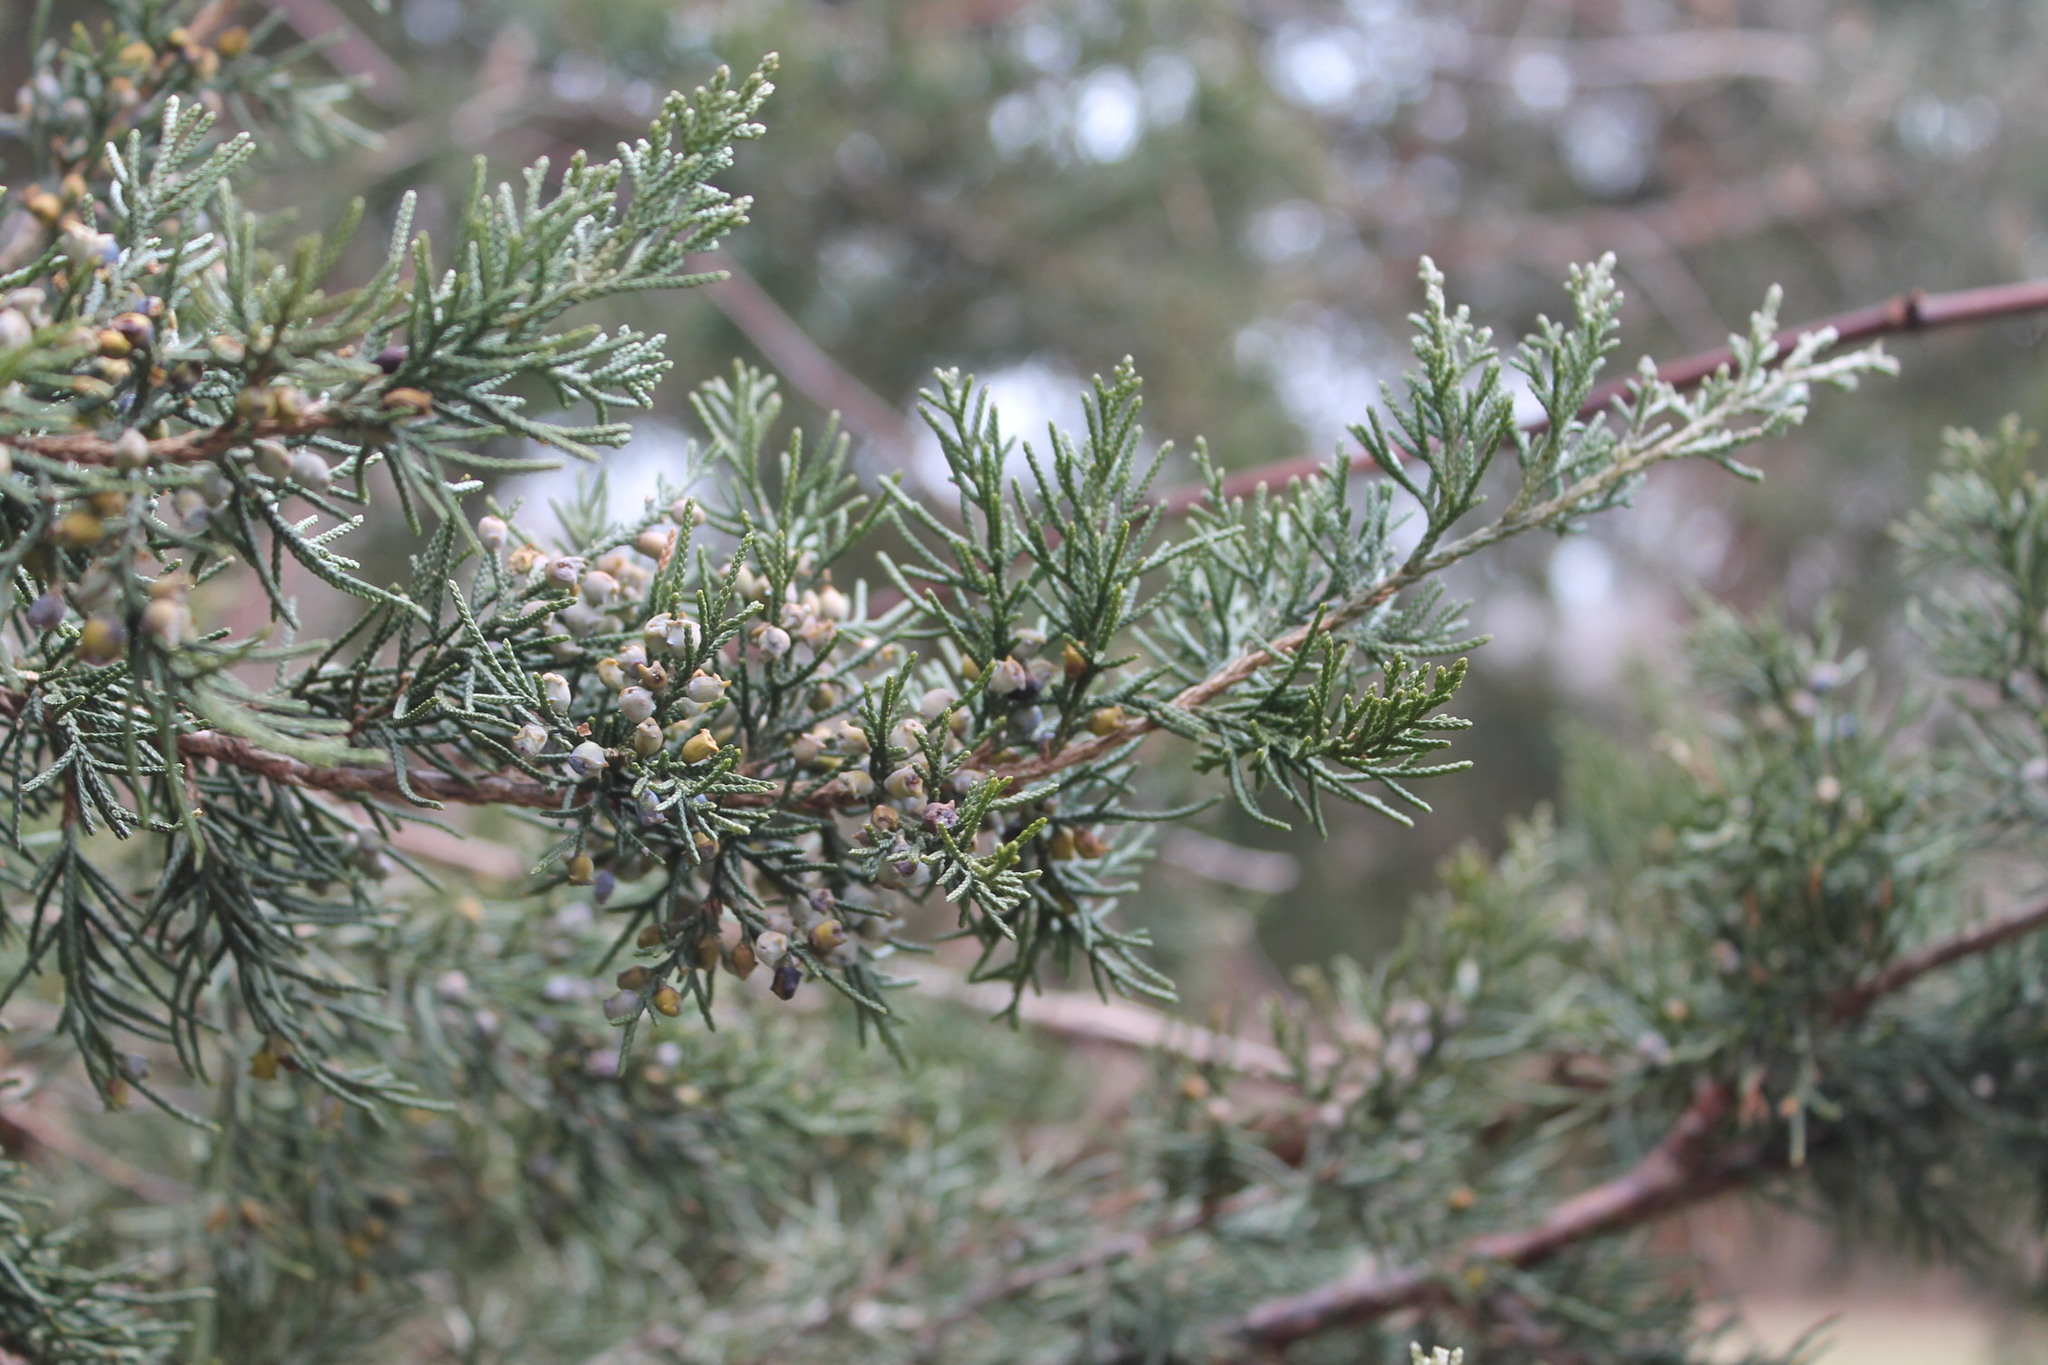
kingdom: Plantae
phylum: Tracheophyta
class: Pinopsida
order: Pinales
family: Cupressaceae
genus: Juniperus
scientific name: Juniperus virginiana
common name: Red juniper
